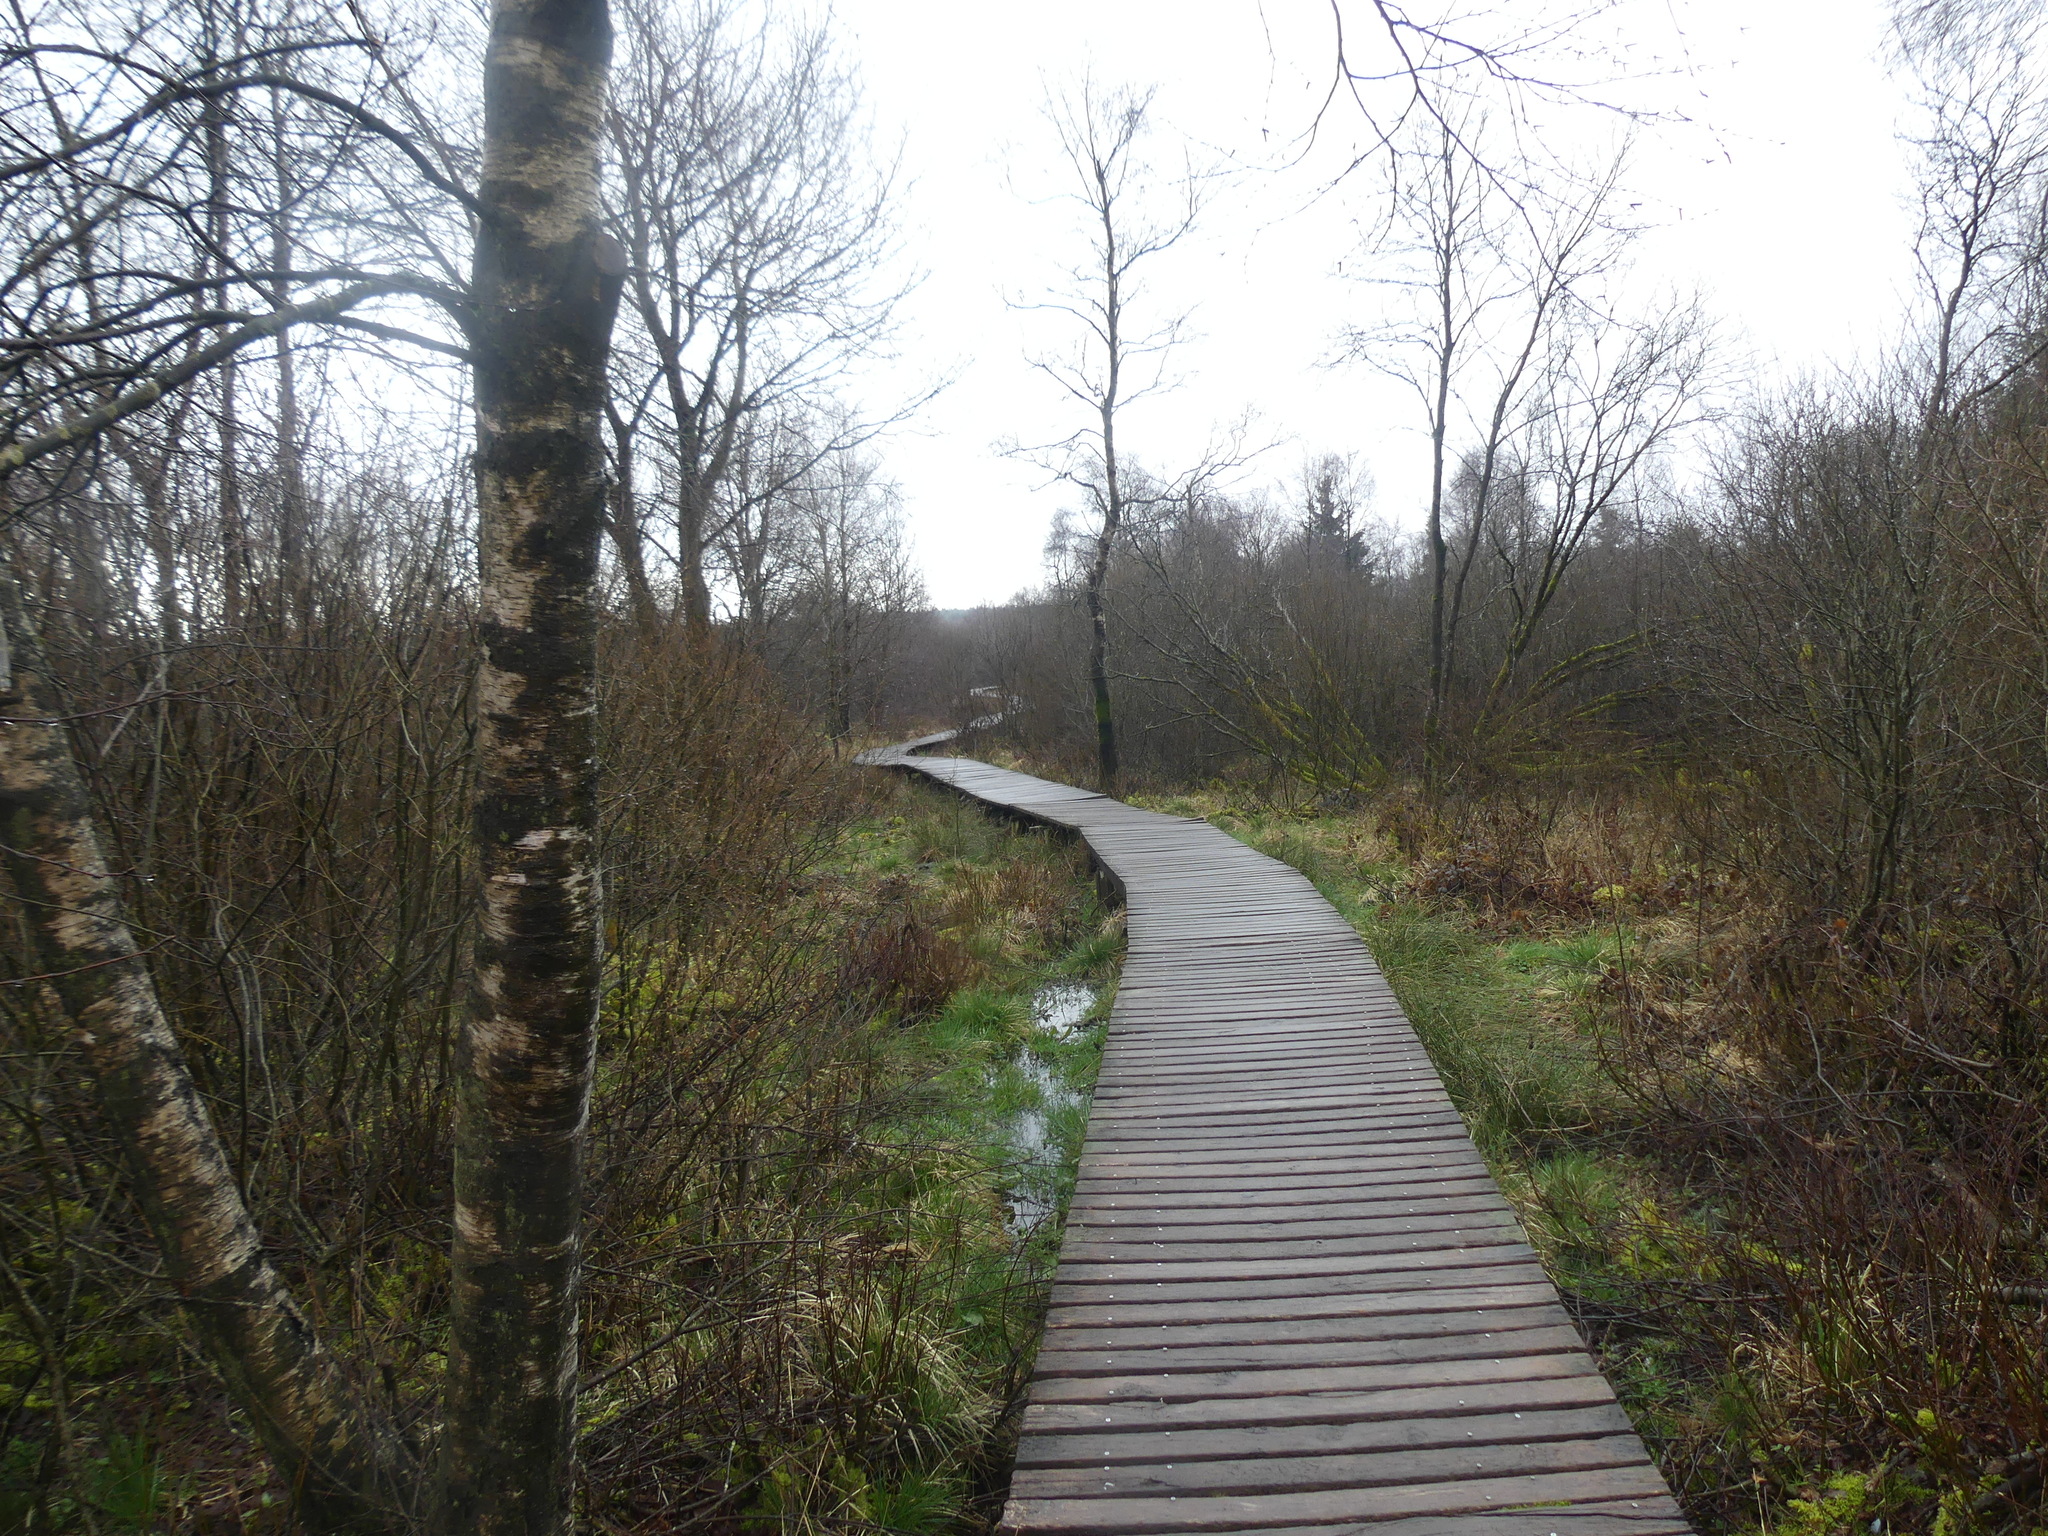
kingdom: Plantae
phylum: Tracheophyta
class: Magnoliopsida
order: Fagales
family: Betulaceae
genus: Betula
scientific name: Betula pendula
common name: Silver birch
